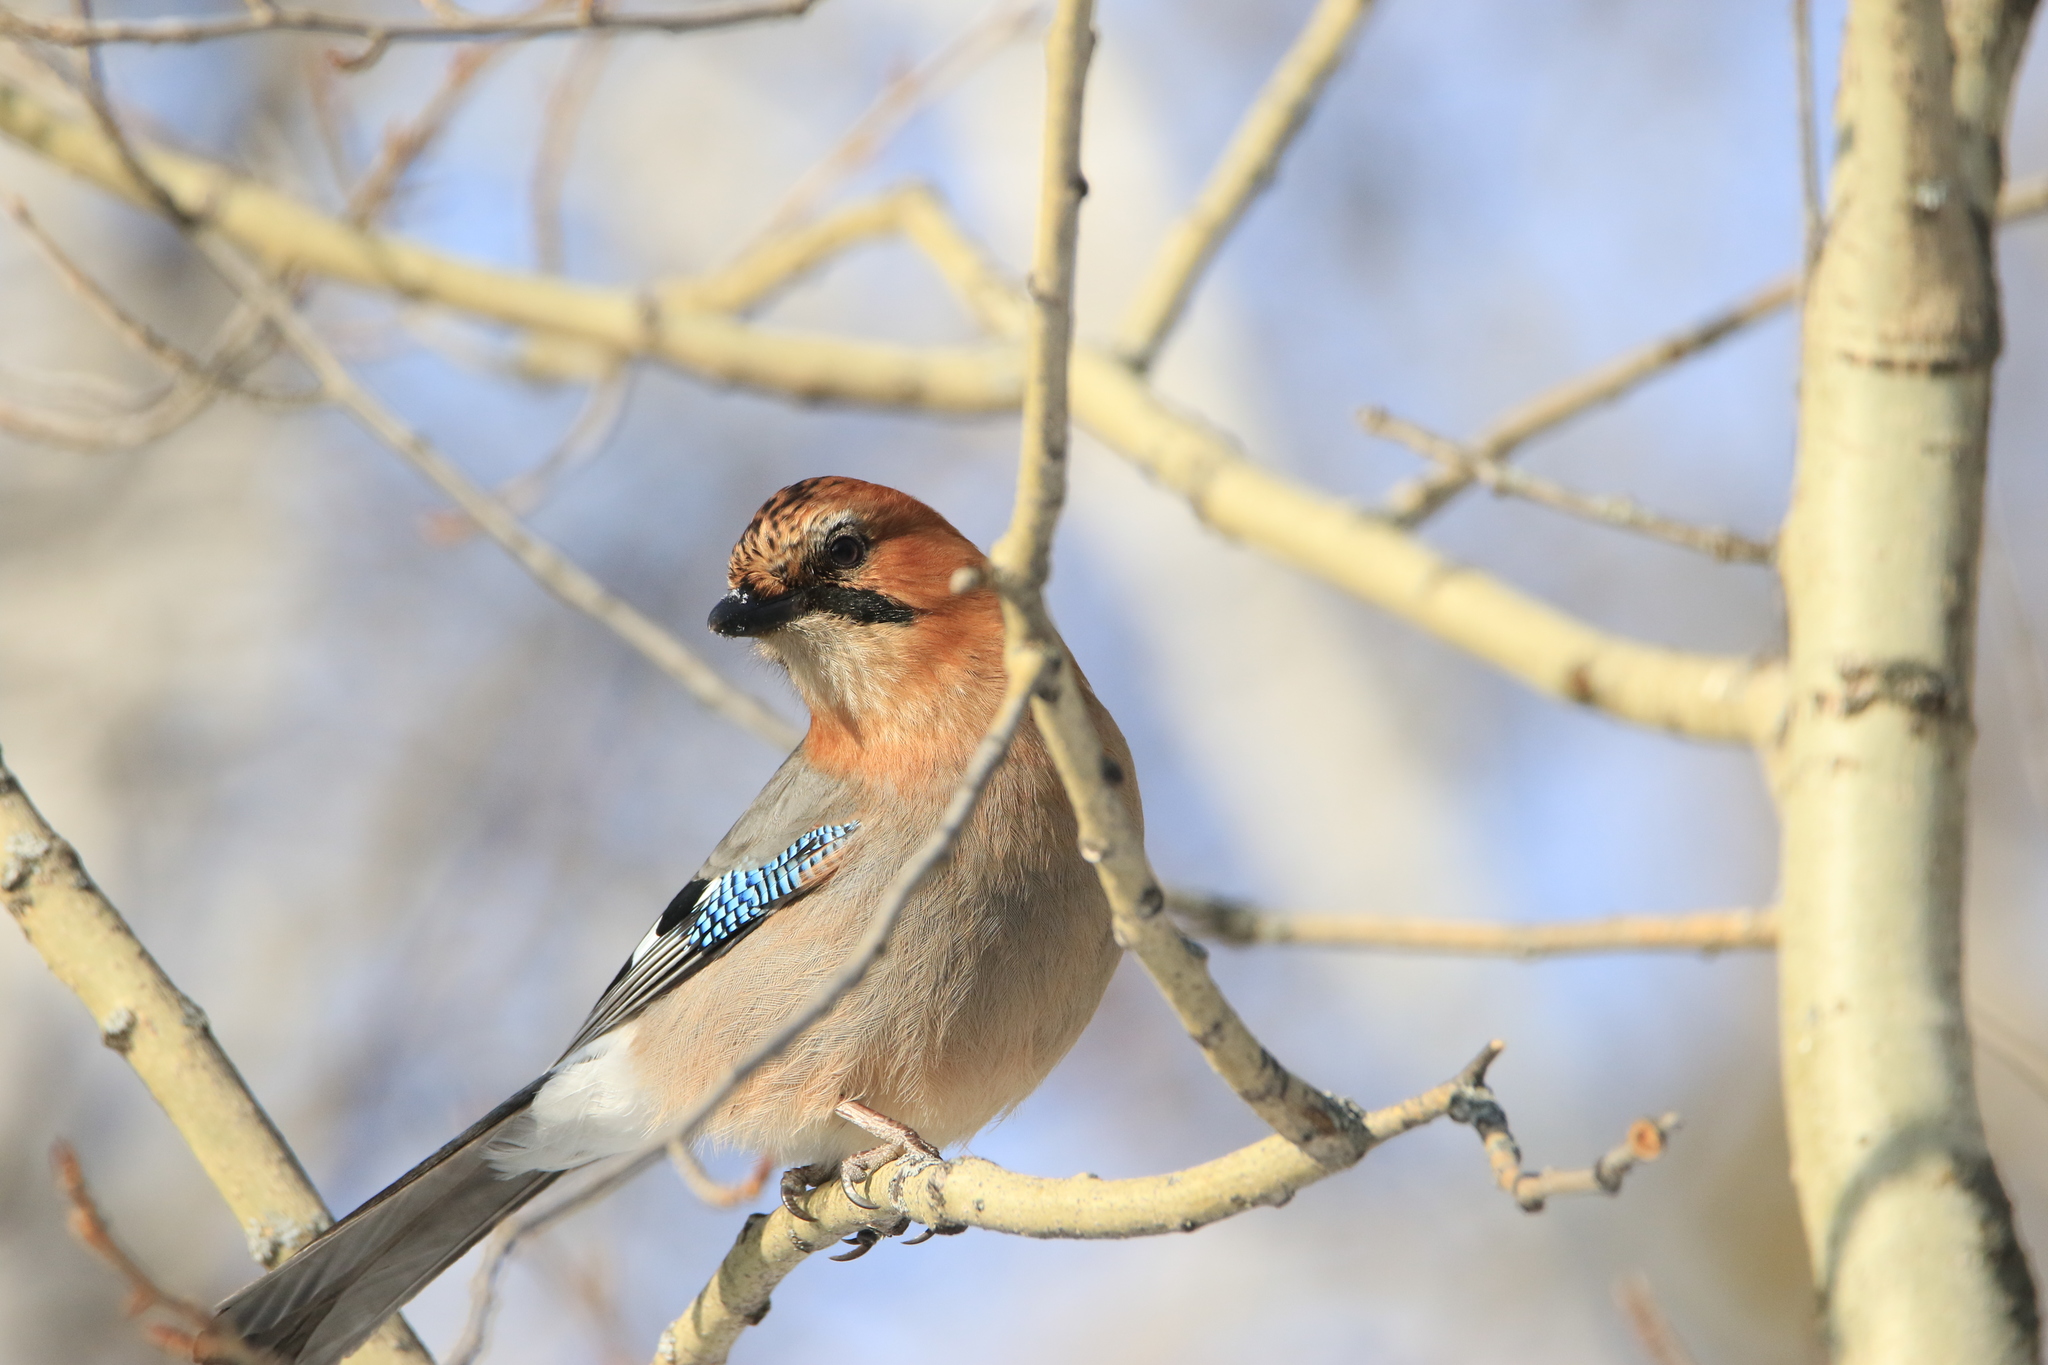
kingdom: Animalia
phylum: Chordata
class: Aves
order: Passeriformes
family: Corvidae
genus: Garrulus
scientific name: Garrulus glandarius
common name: Eurasian jay
